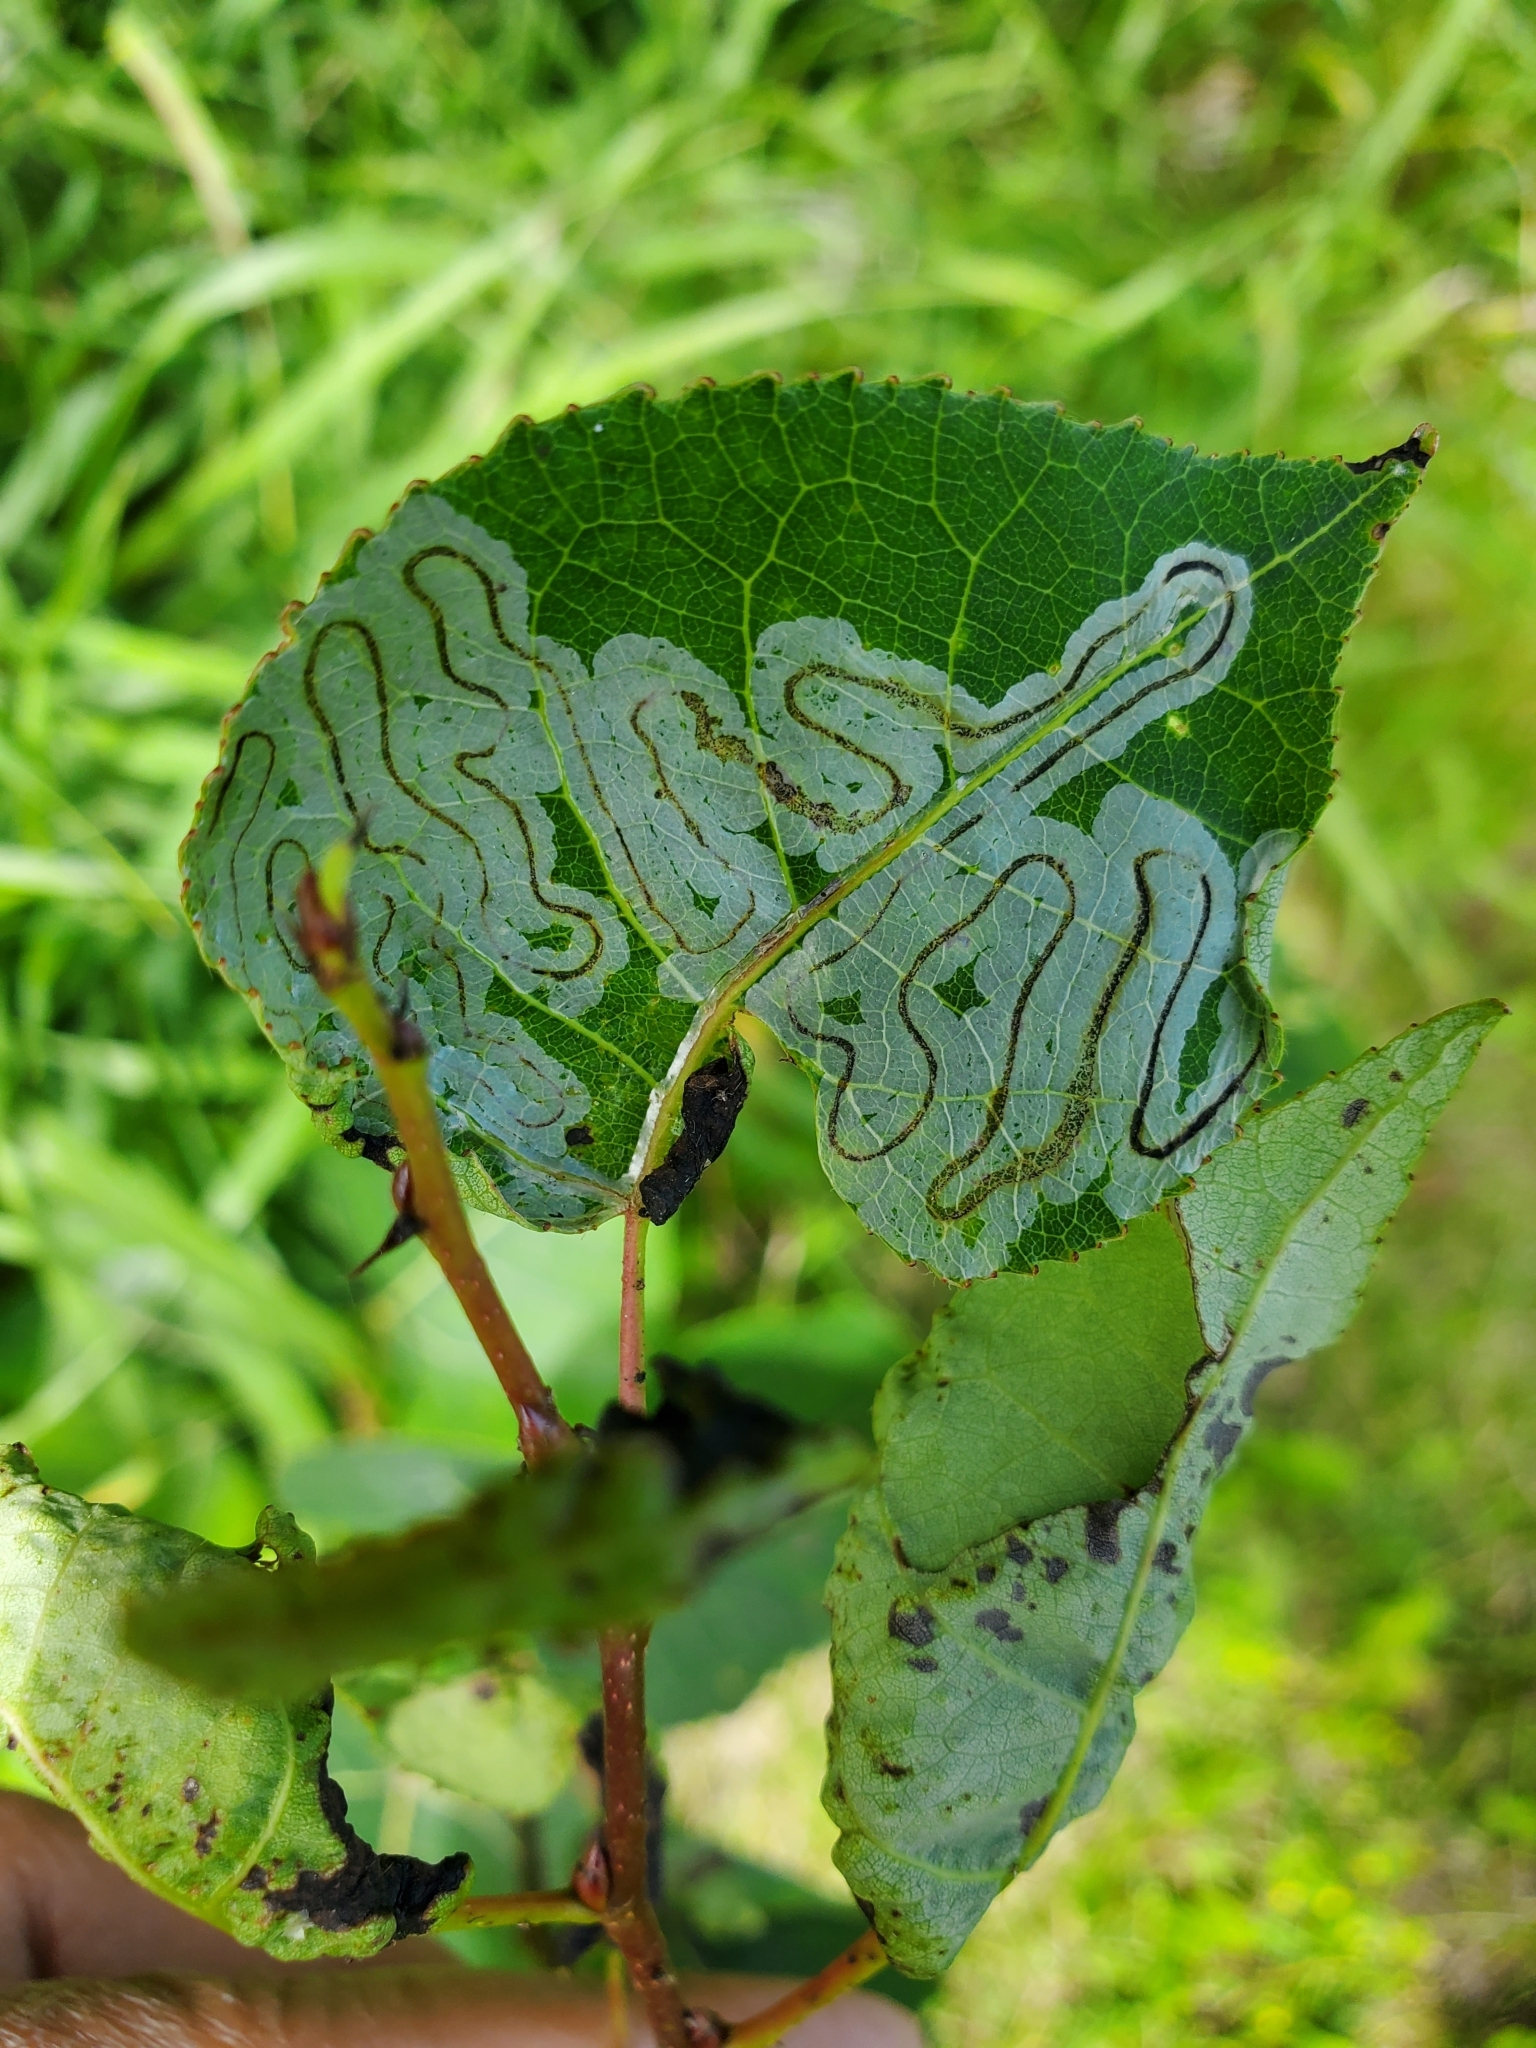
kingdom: Animalia
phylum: Arthropoda
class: Insecta
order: Lepidoptera
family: Gracillariidae
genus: Phyllocnistis
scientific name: Phyllocnistis populiella
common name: Aspen serpentine leafminer moth
